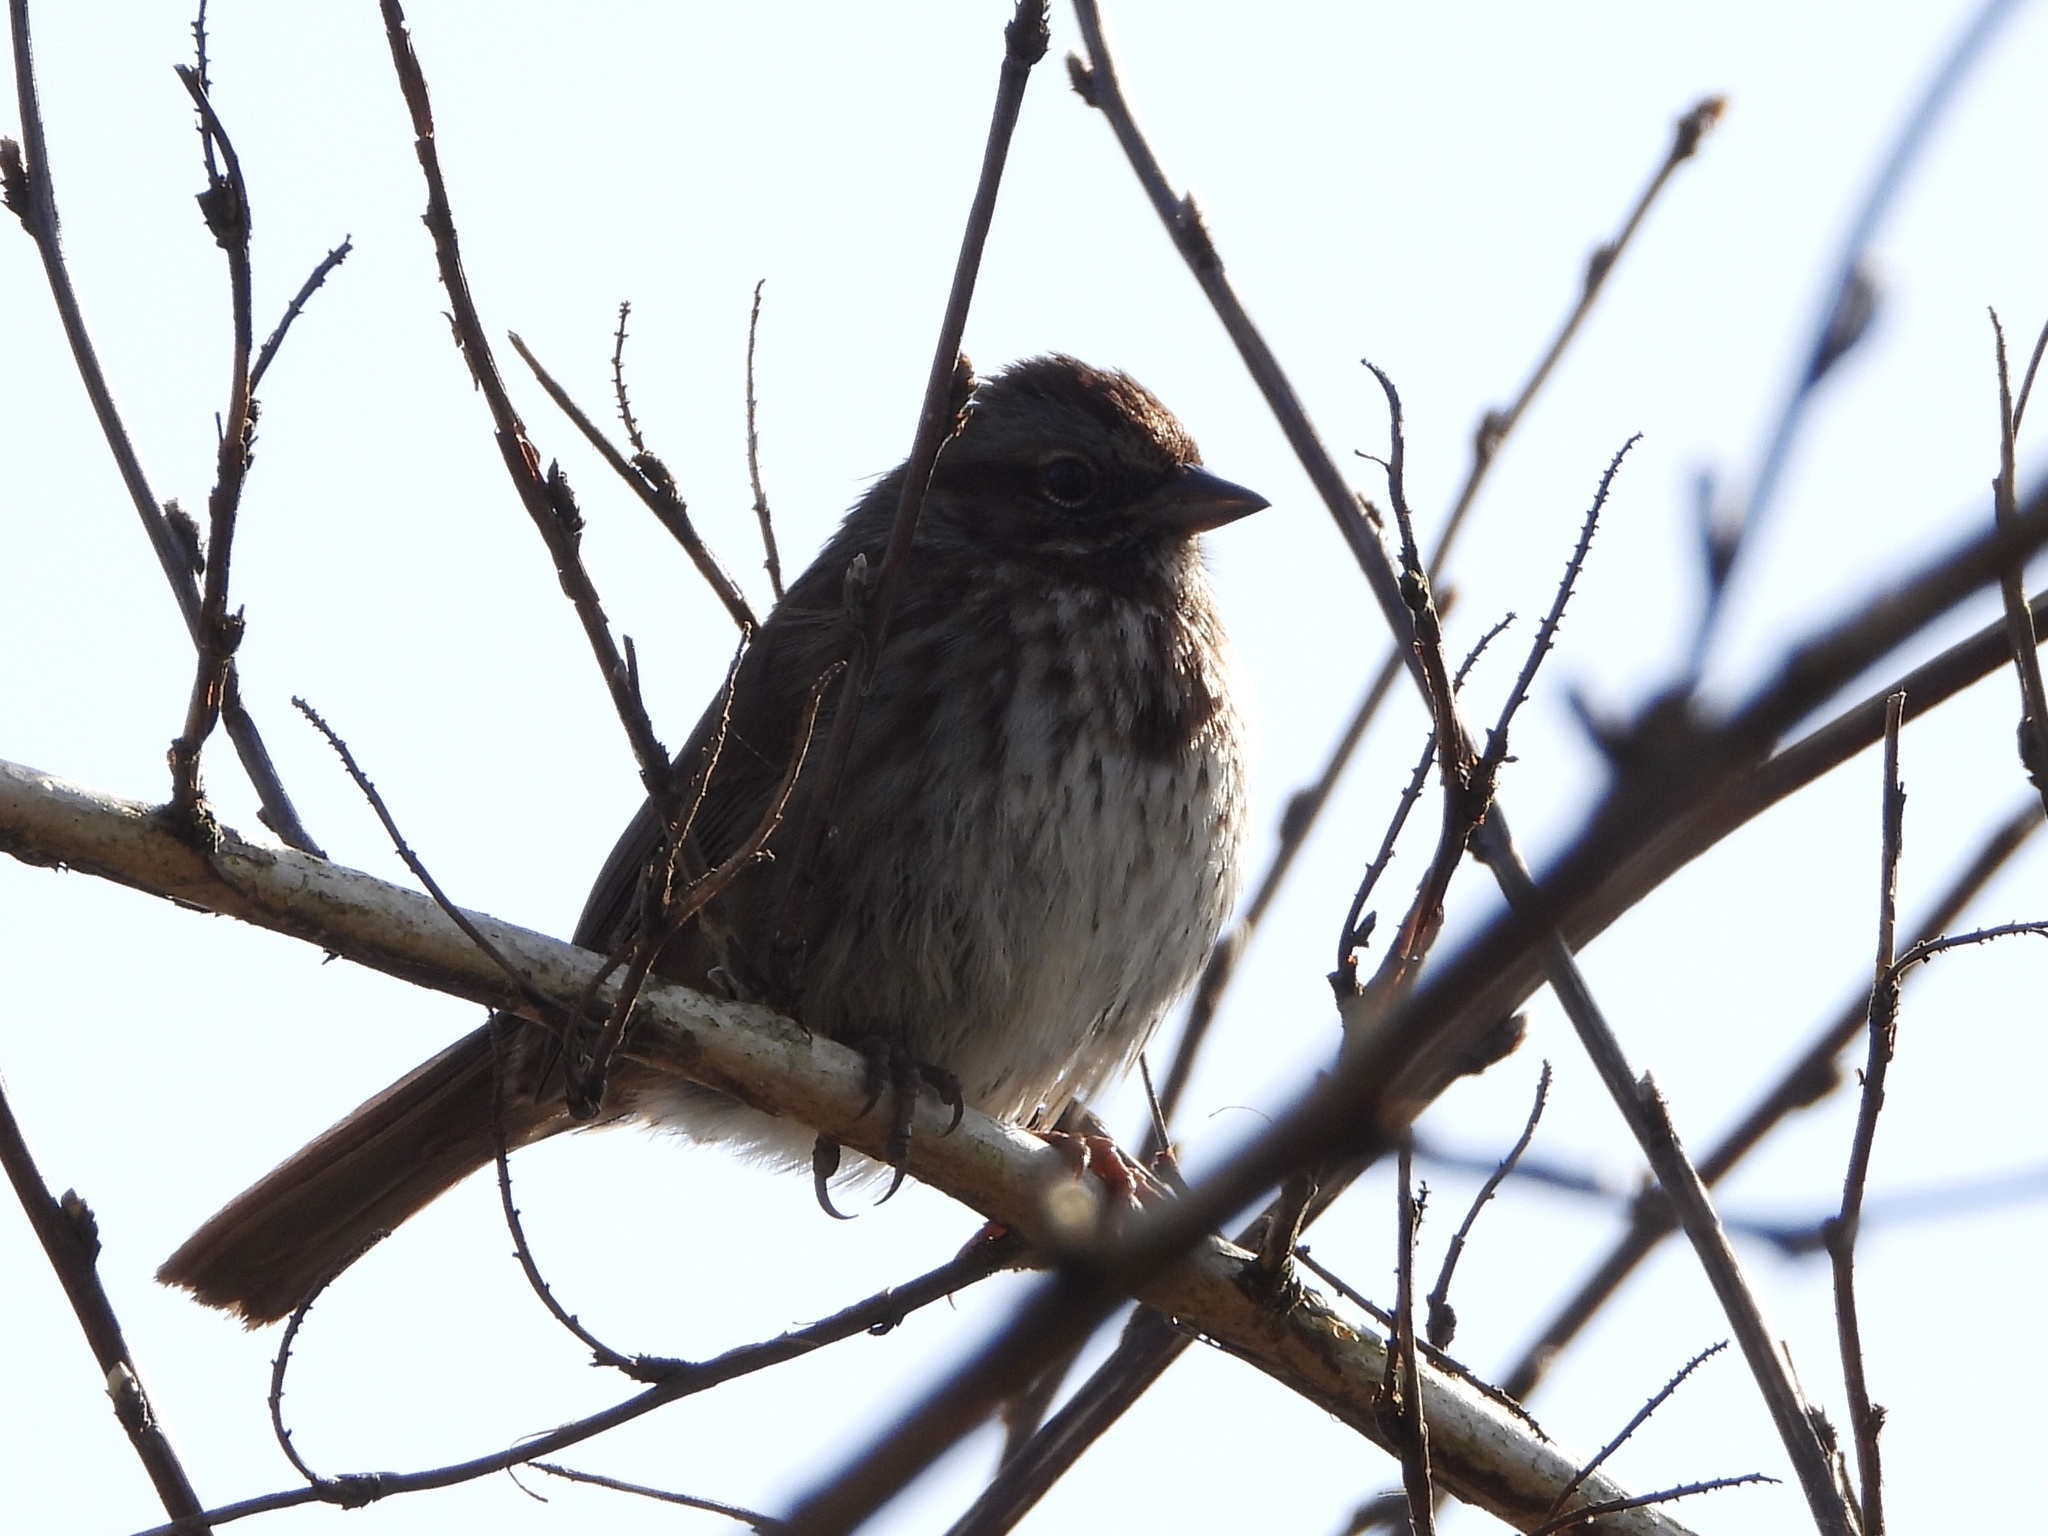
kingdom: Animalia
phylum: Chordata
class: Aves
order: Passeriformes
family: Passerellidae
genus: Melospiza
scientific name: Melospiza melodia
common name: Song sparrow
